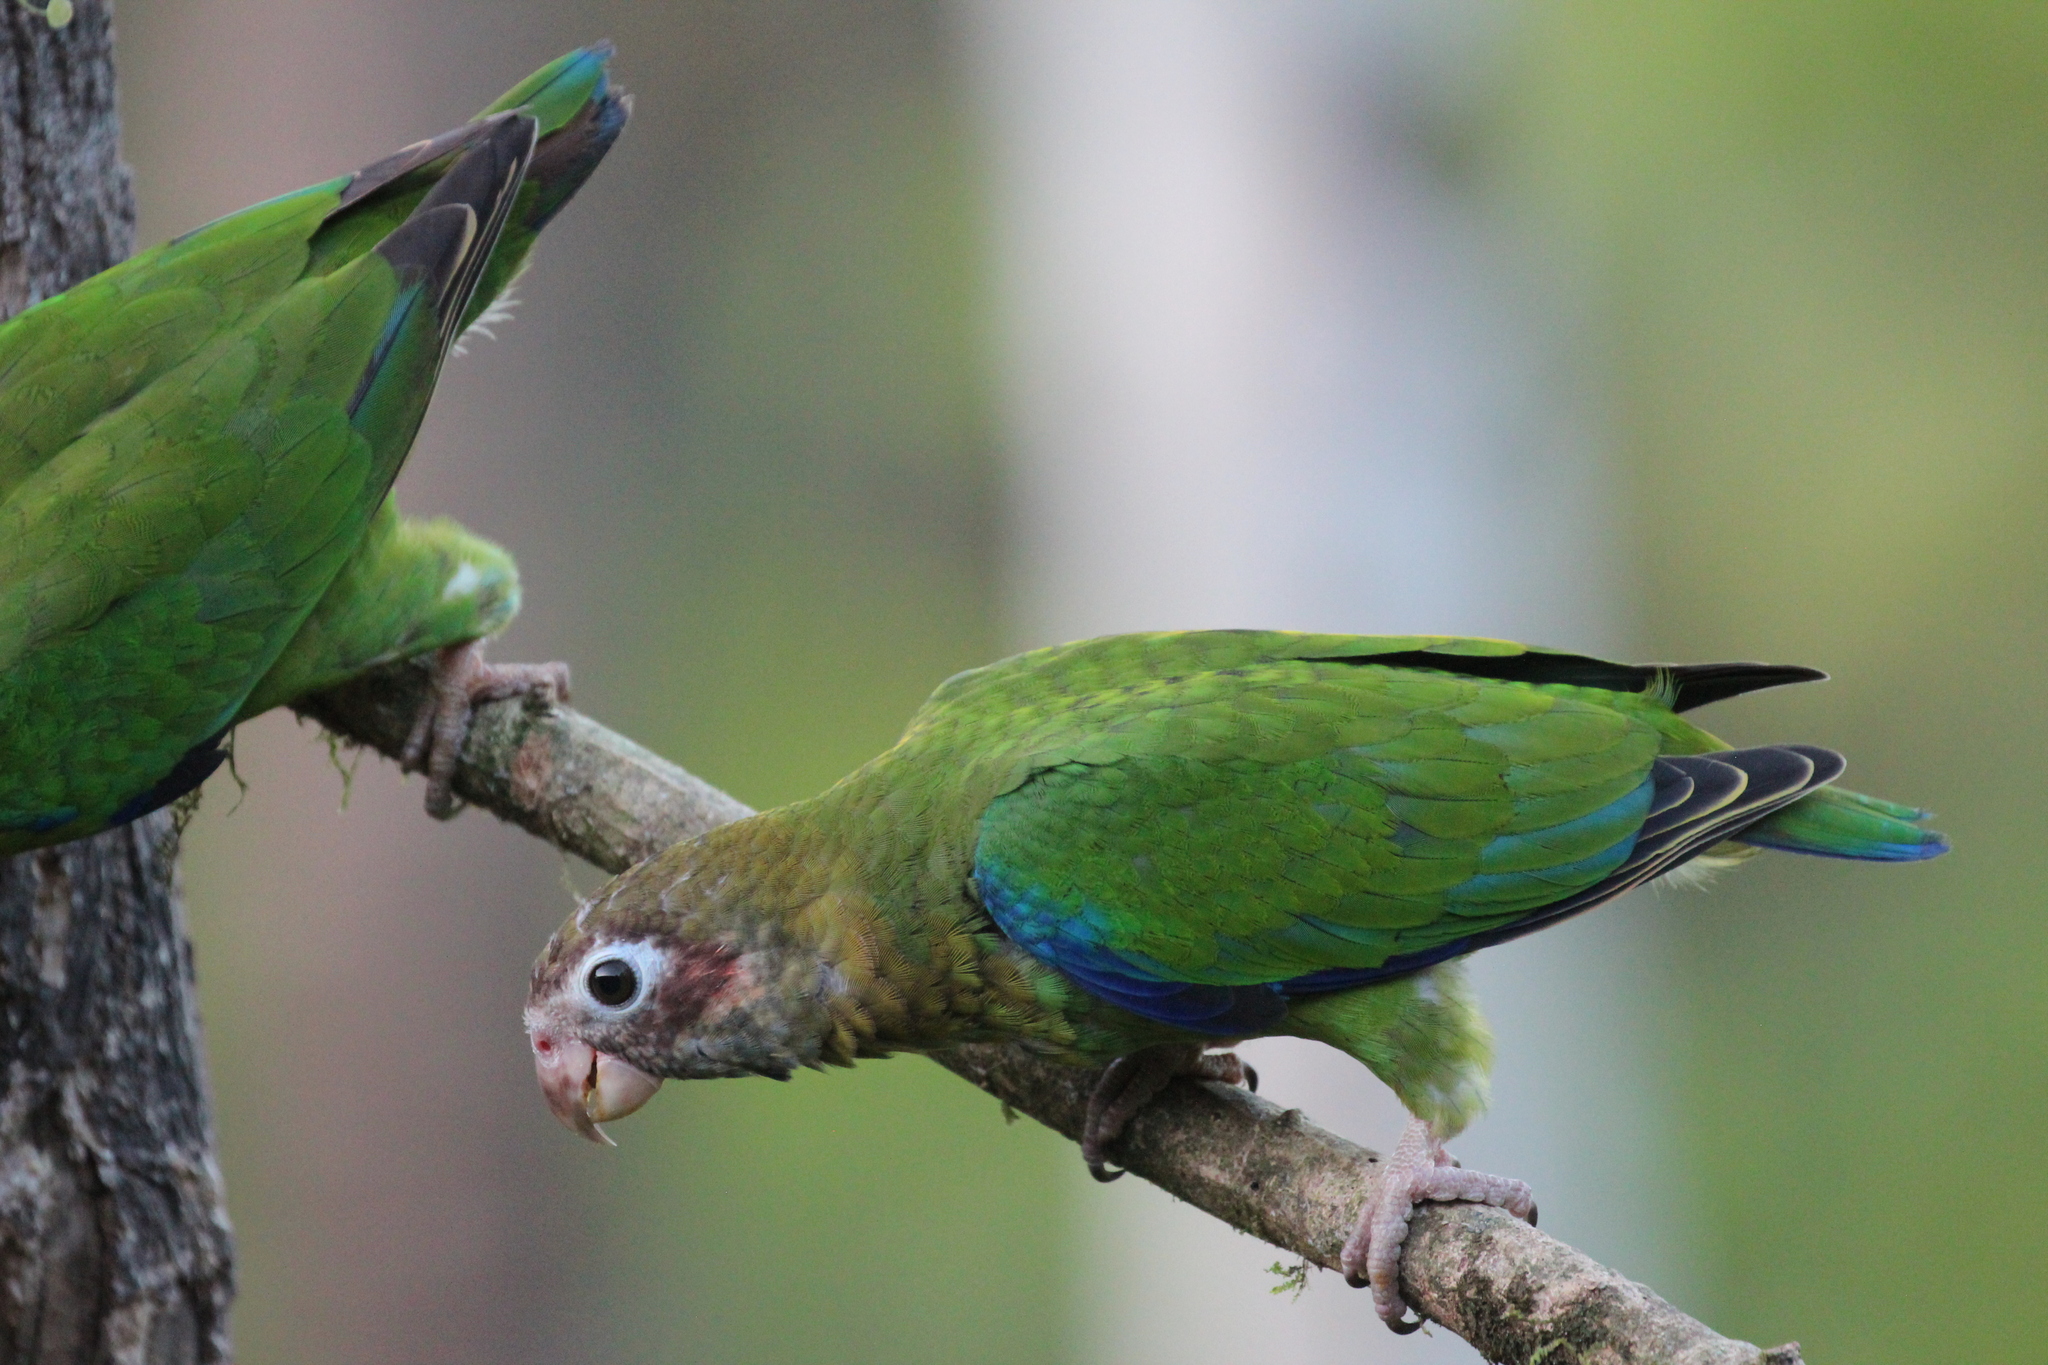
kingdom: Animalia
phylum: Chordata
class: Aves
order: Psittaciformes
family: Psittacidae
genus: Pionopsitta
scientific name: Pionopsitta haematotis
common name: Brown-hooded parrot
